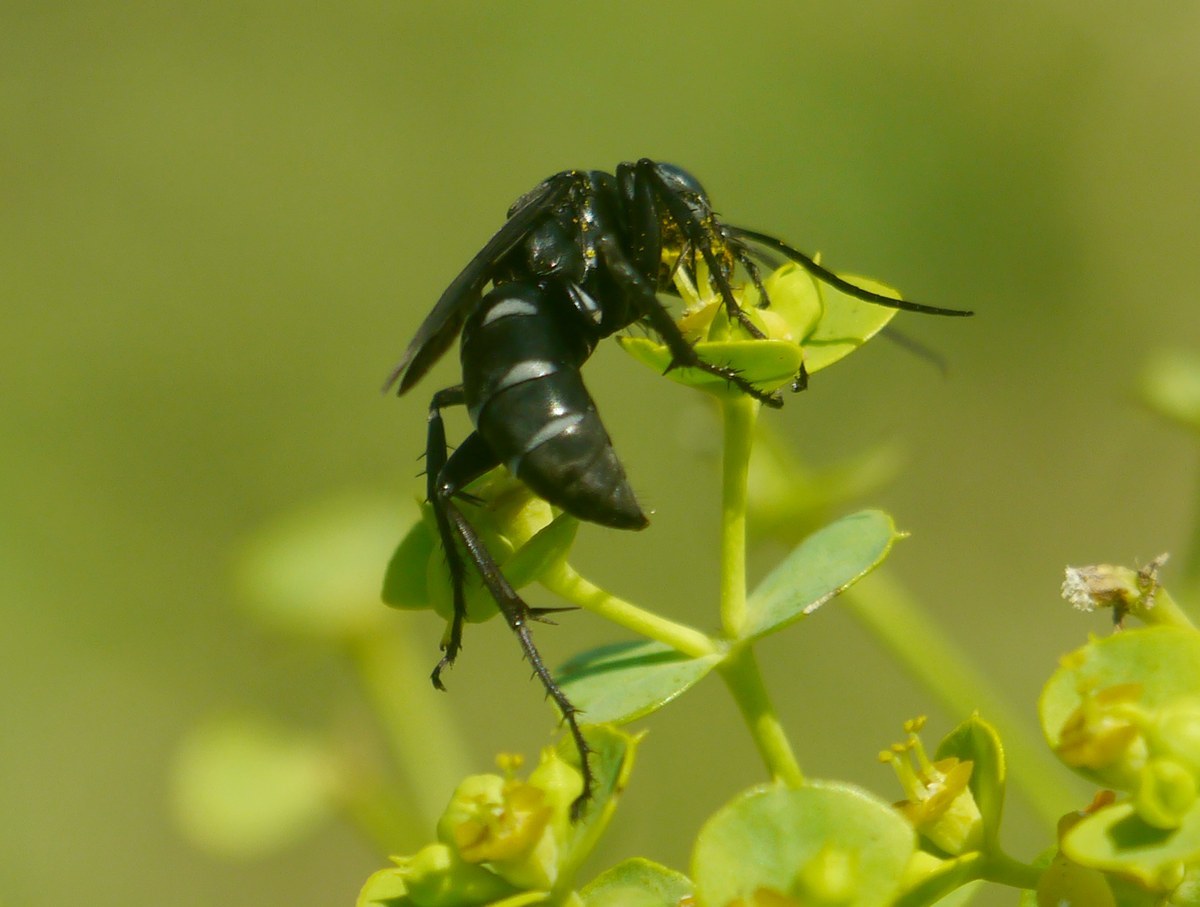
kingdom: Animalia
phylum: Arthropoda
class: Insecta
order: Hymenoptera
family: Pompilidae
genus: Dicyrtomellus
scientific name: Dicyrtomellus tingitanus
